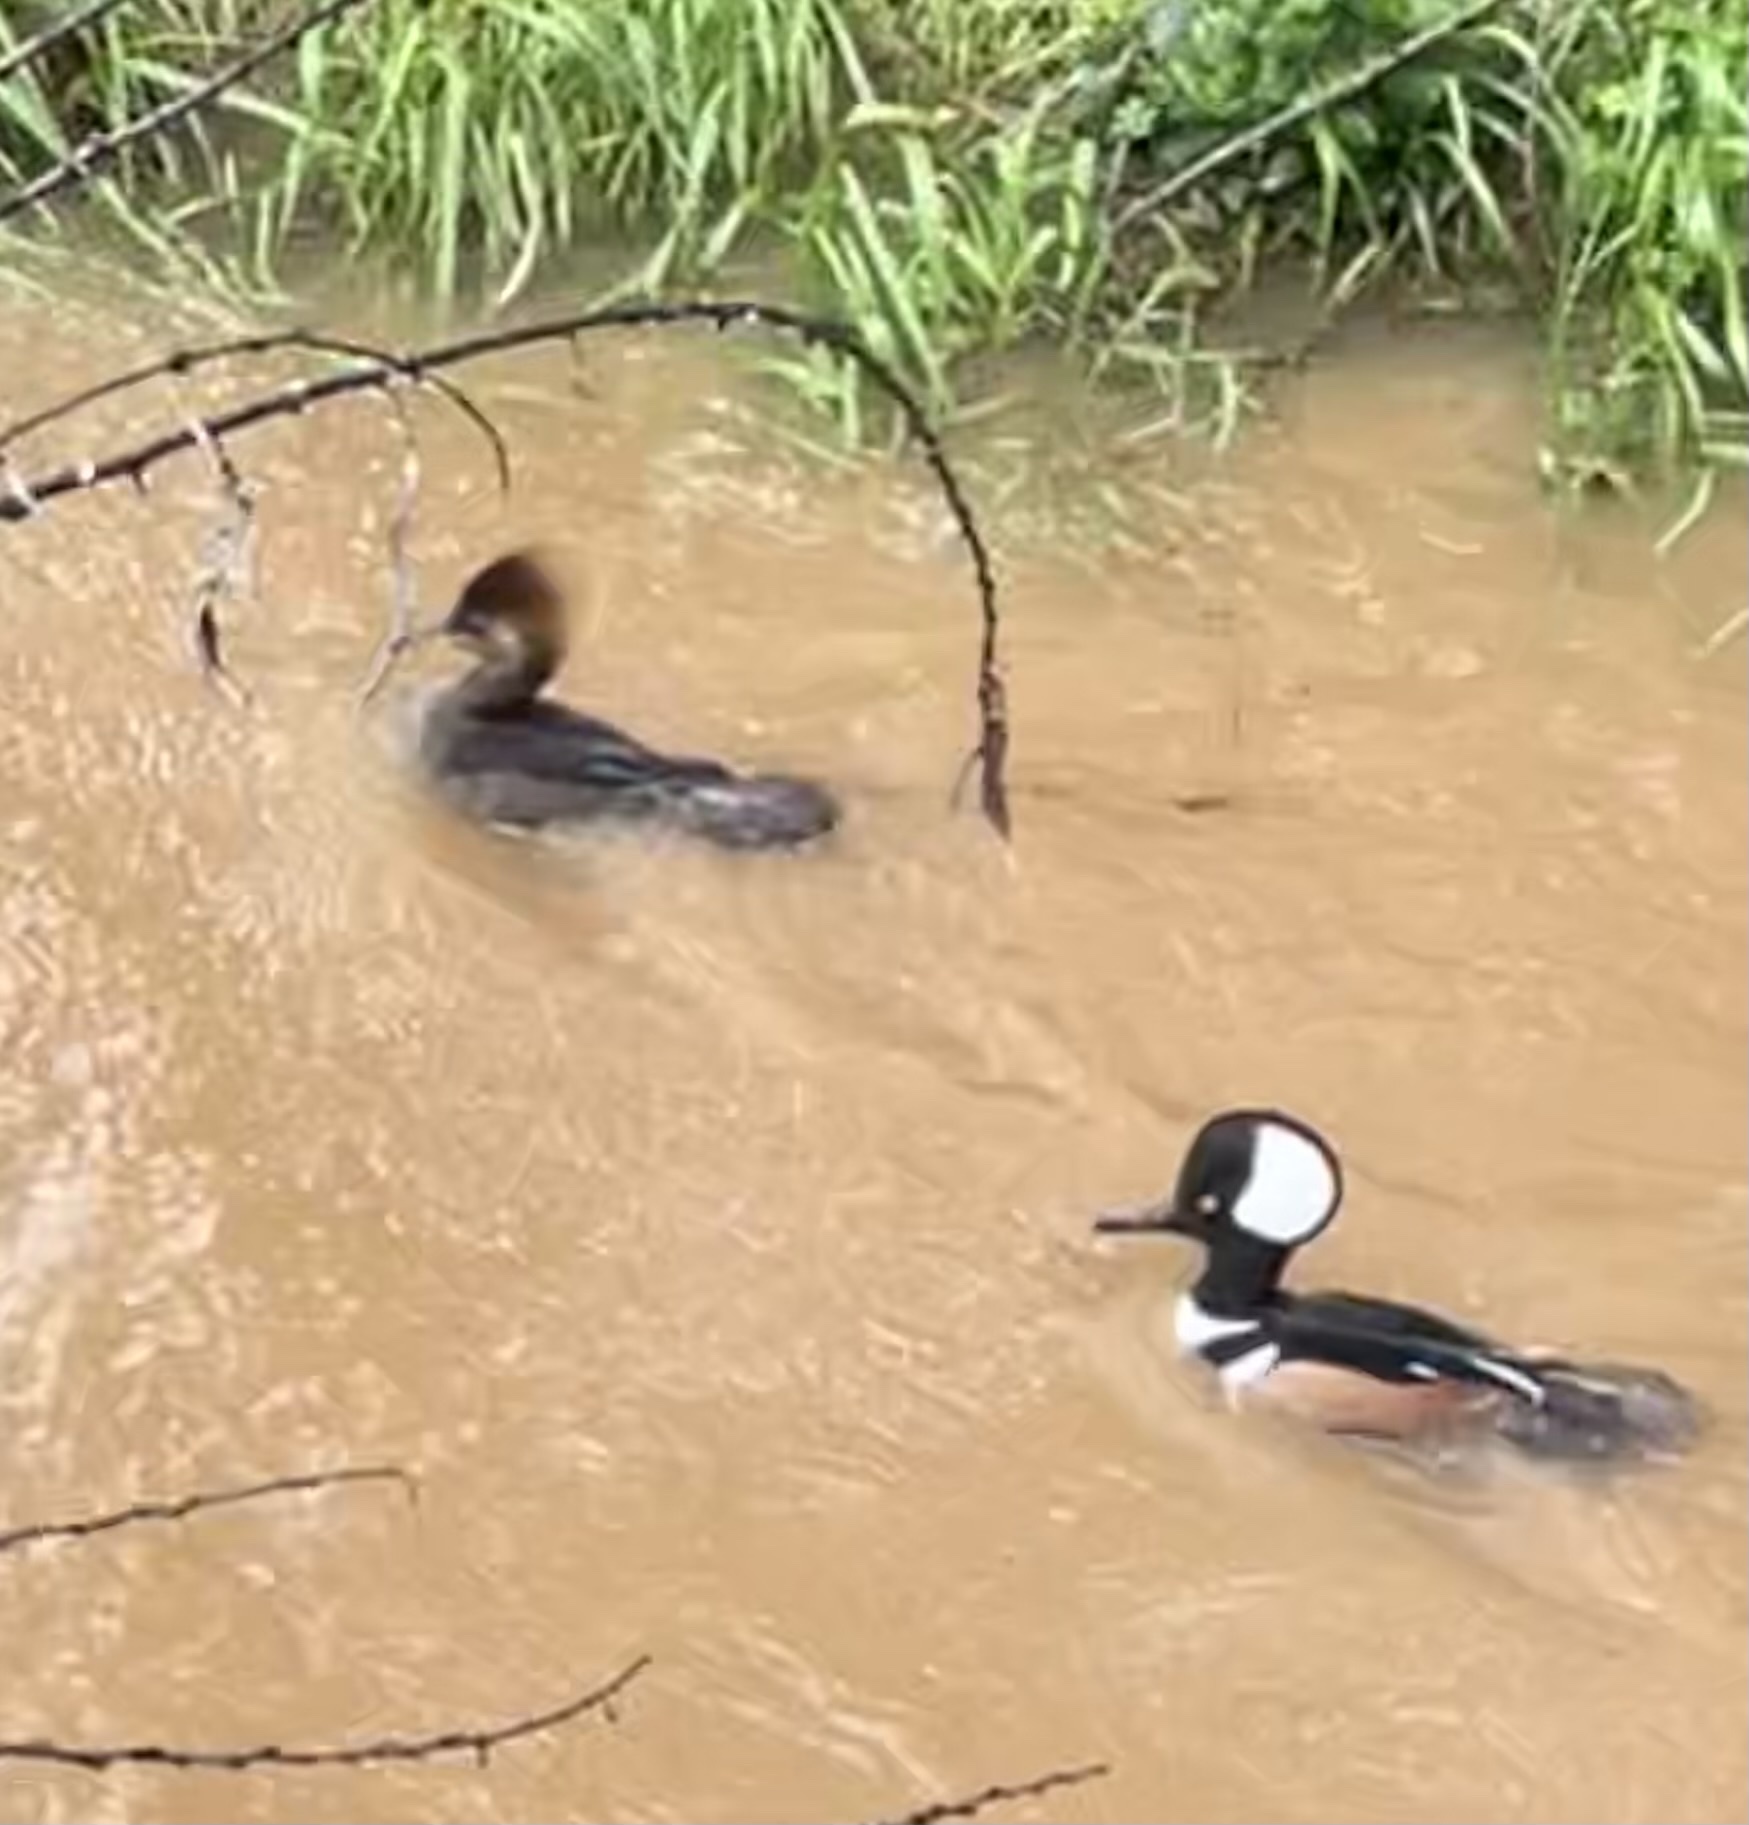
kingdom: Animalia
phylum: Chordata
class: Aves
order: Anseriformes
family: Anatidae
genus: Lophodytes
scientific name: Lophodytes cucullatus
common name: Hooded merganser
